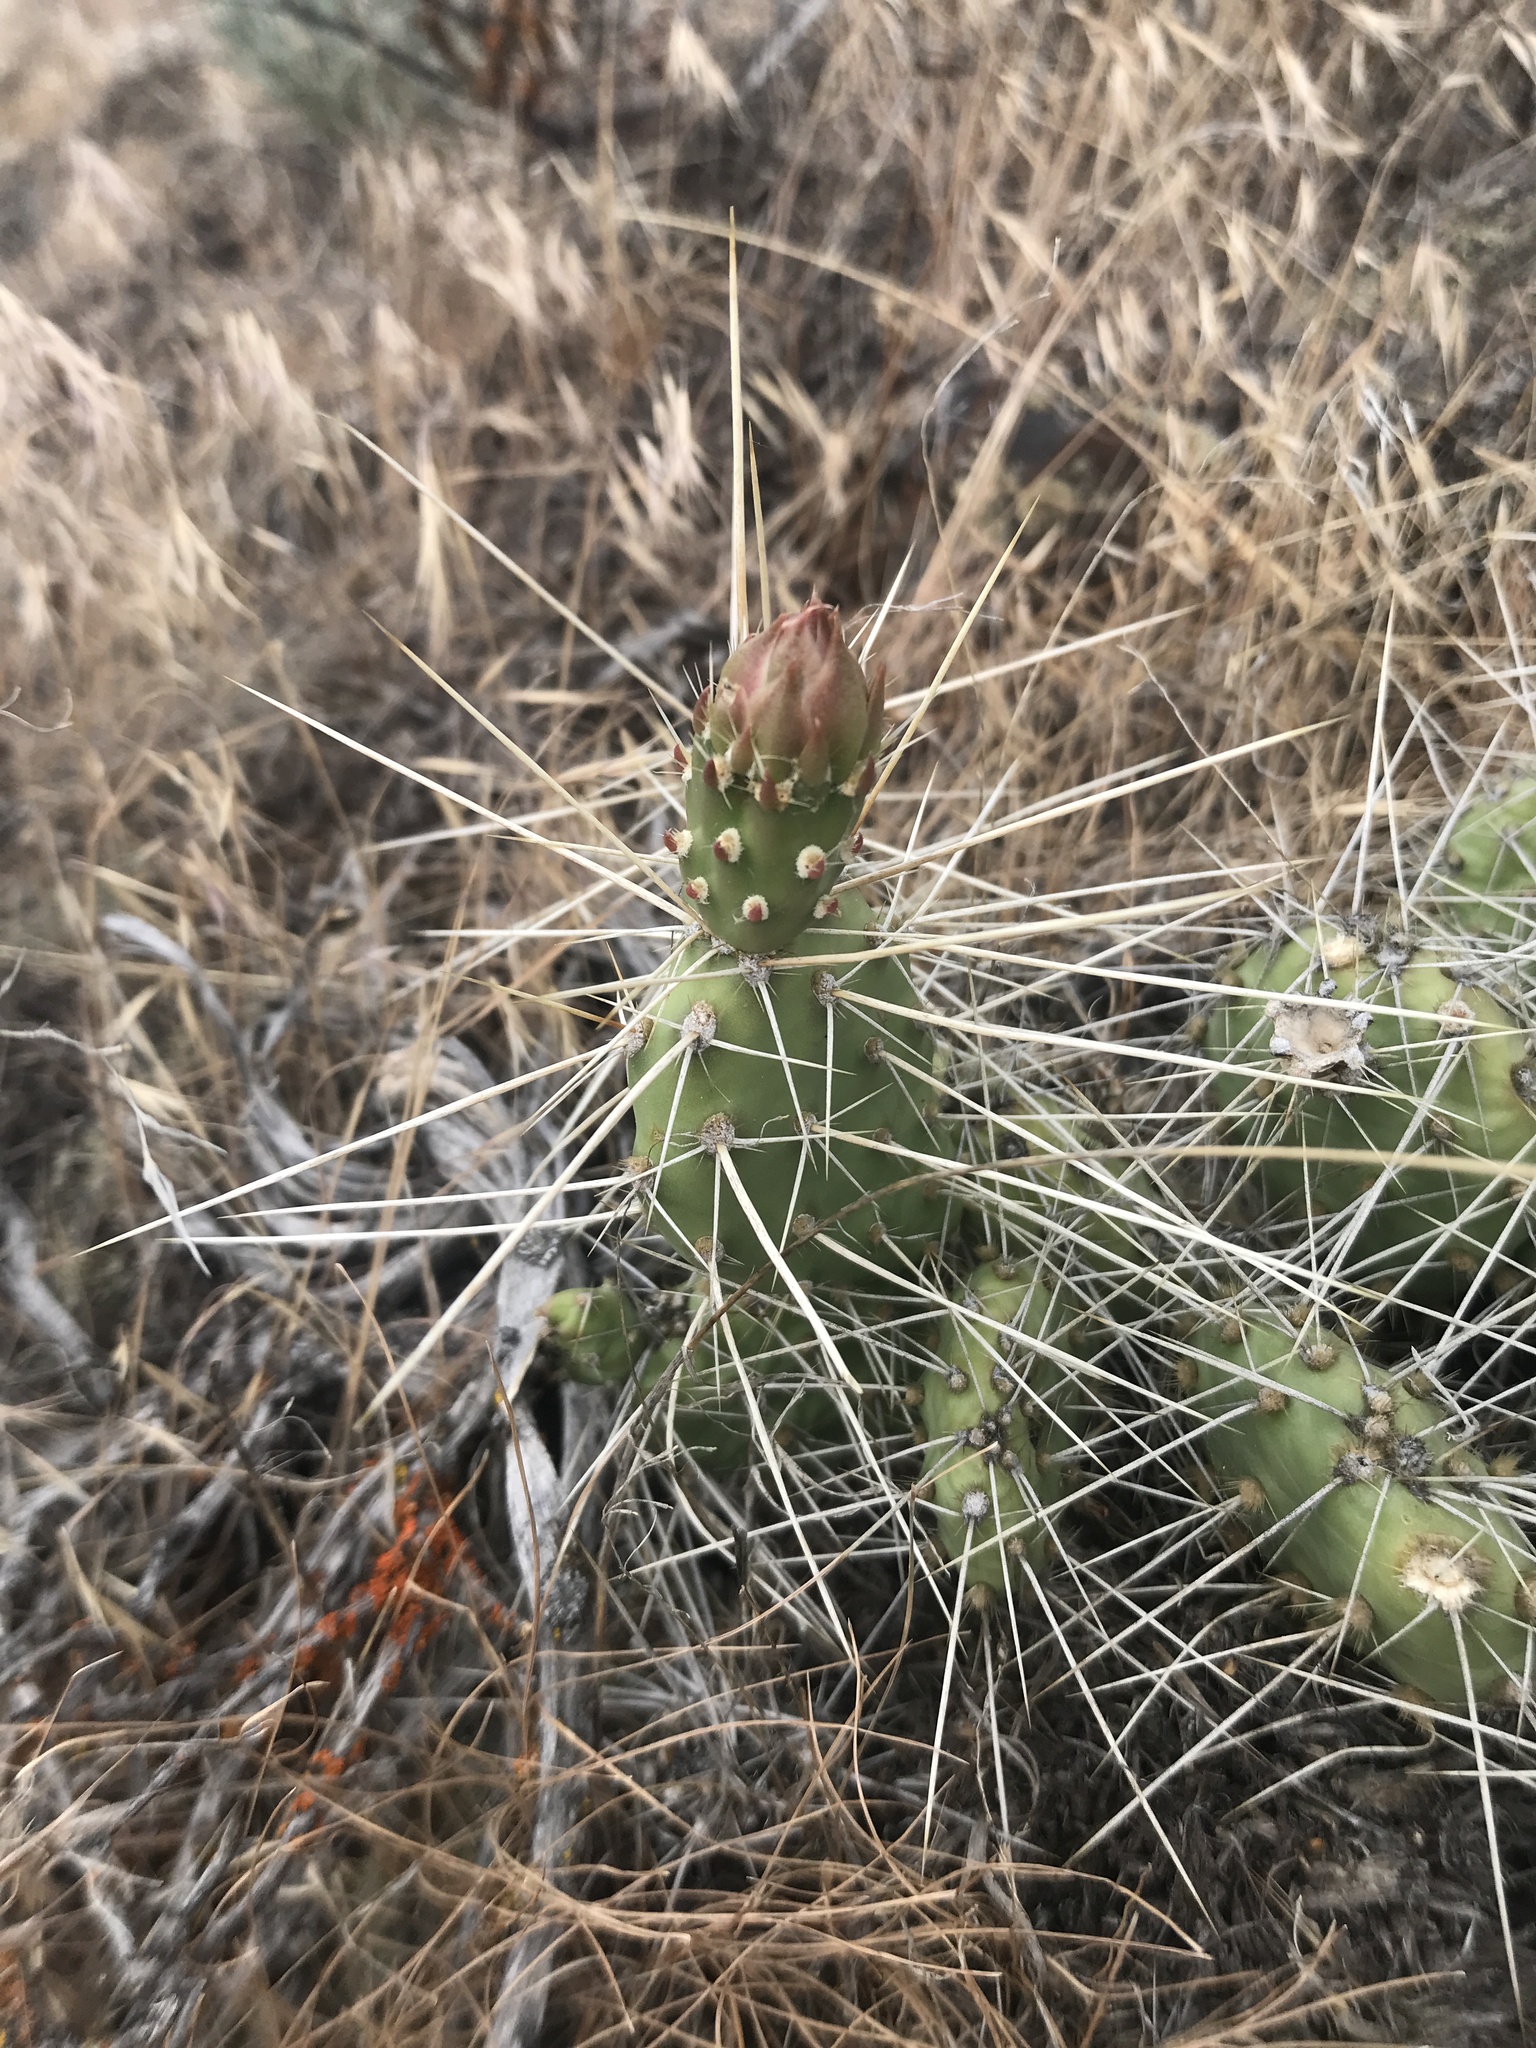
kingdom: Plantae
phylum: Tracheophyta
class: Magnoliopsida
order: Caryophyllales
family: Cactaceae
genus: Opuntia
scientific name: Opuntia columbiana
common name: Columbia prickly-pear
